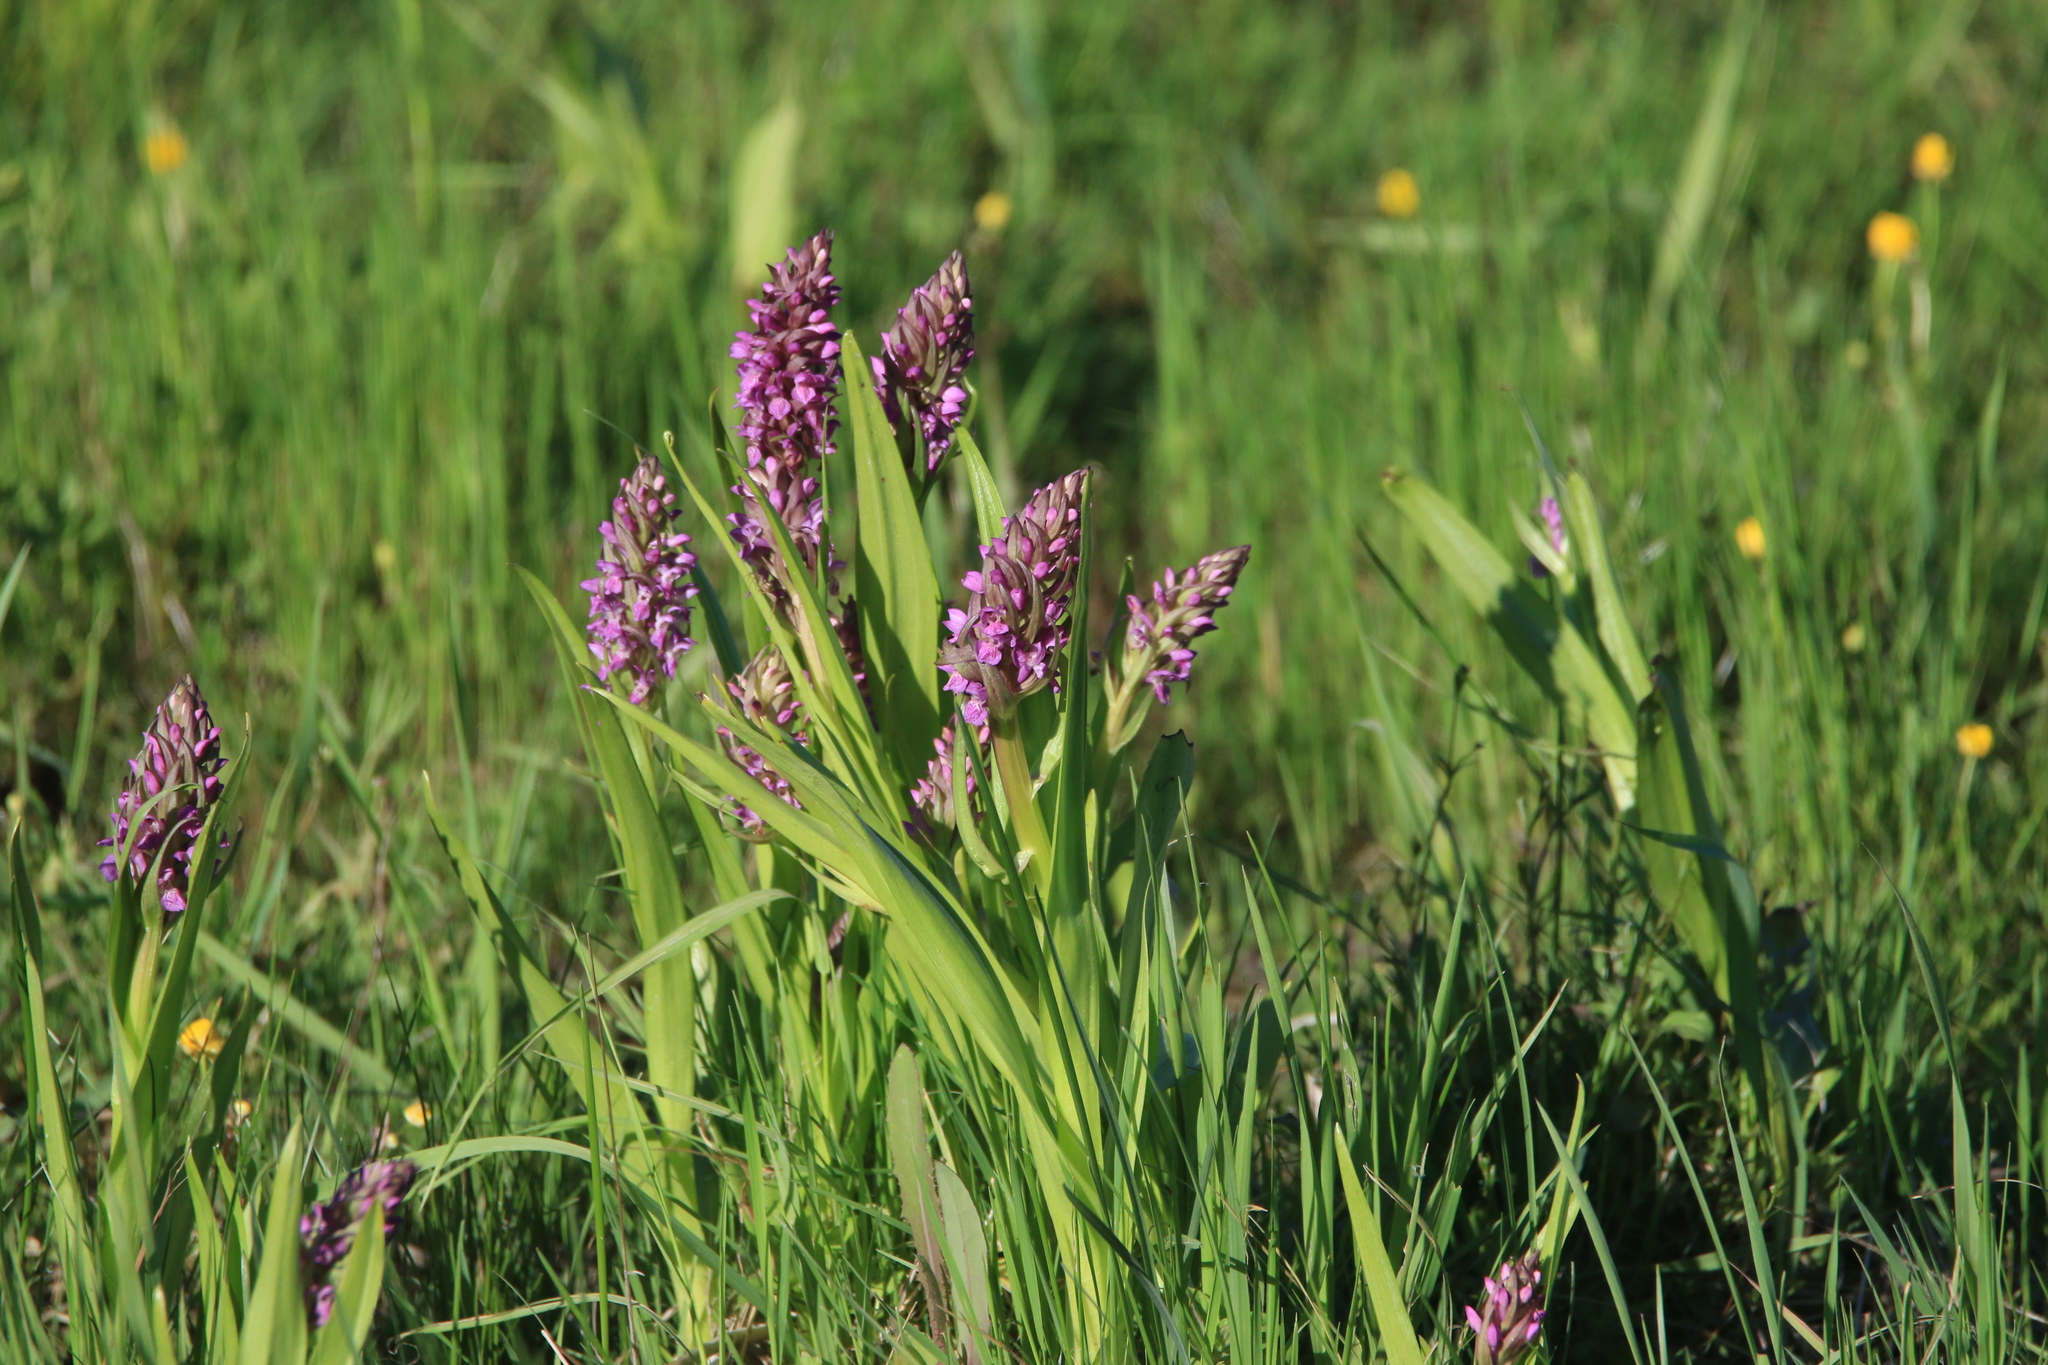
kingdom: Plantae
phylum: Tracheophyta
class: Liliopsida
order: Asparagales
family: Orchidaceae
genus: Dactylorhiza
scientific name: Dactylorhiza incarnata
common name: Early marsh-orchid
